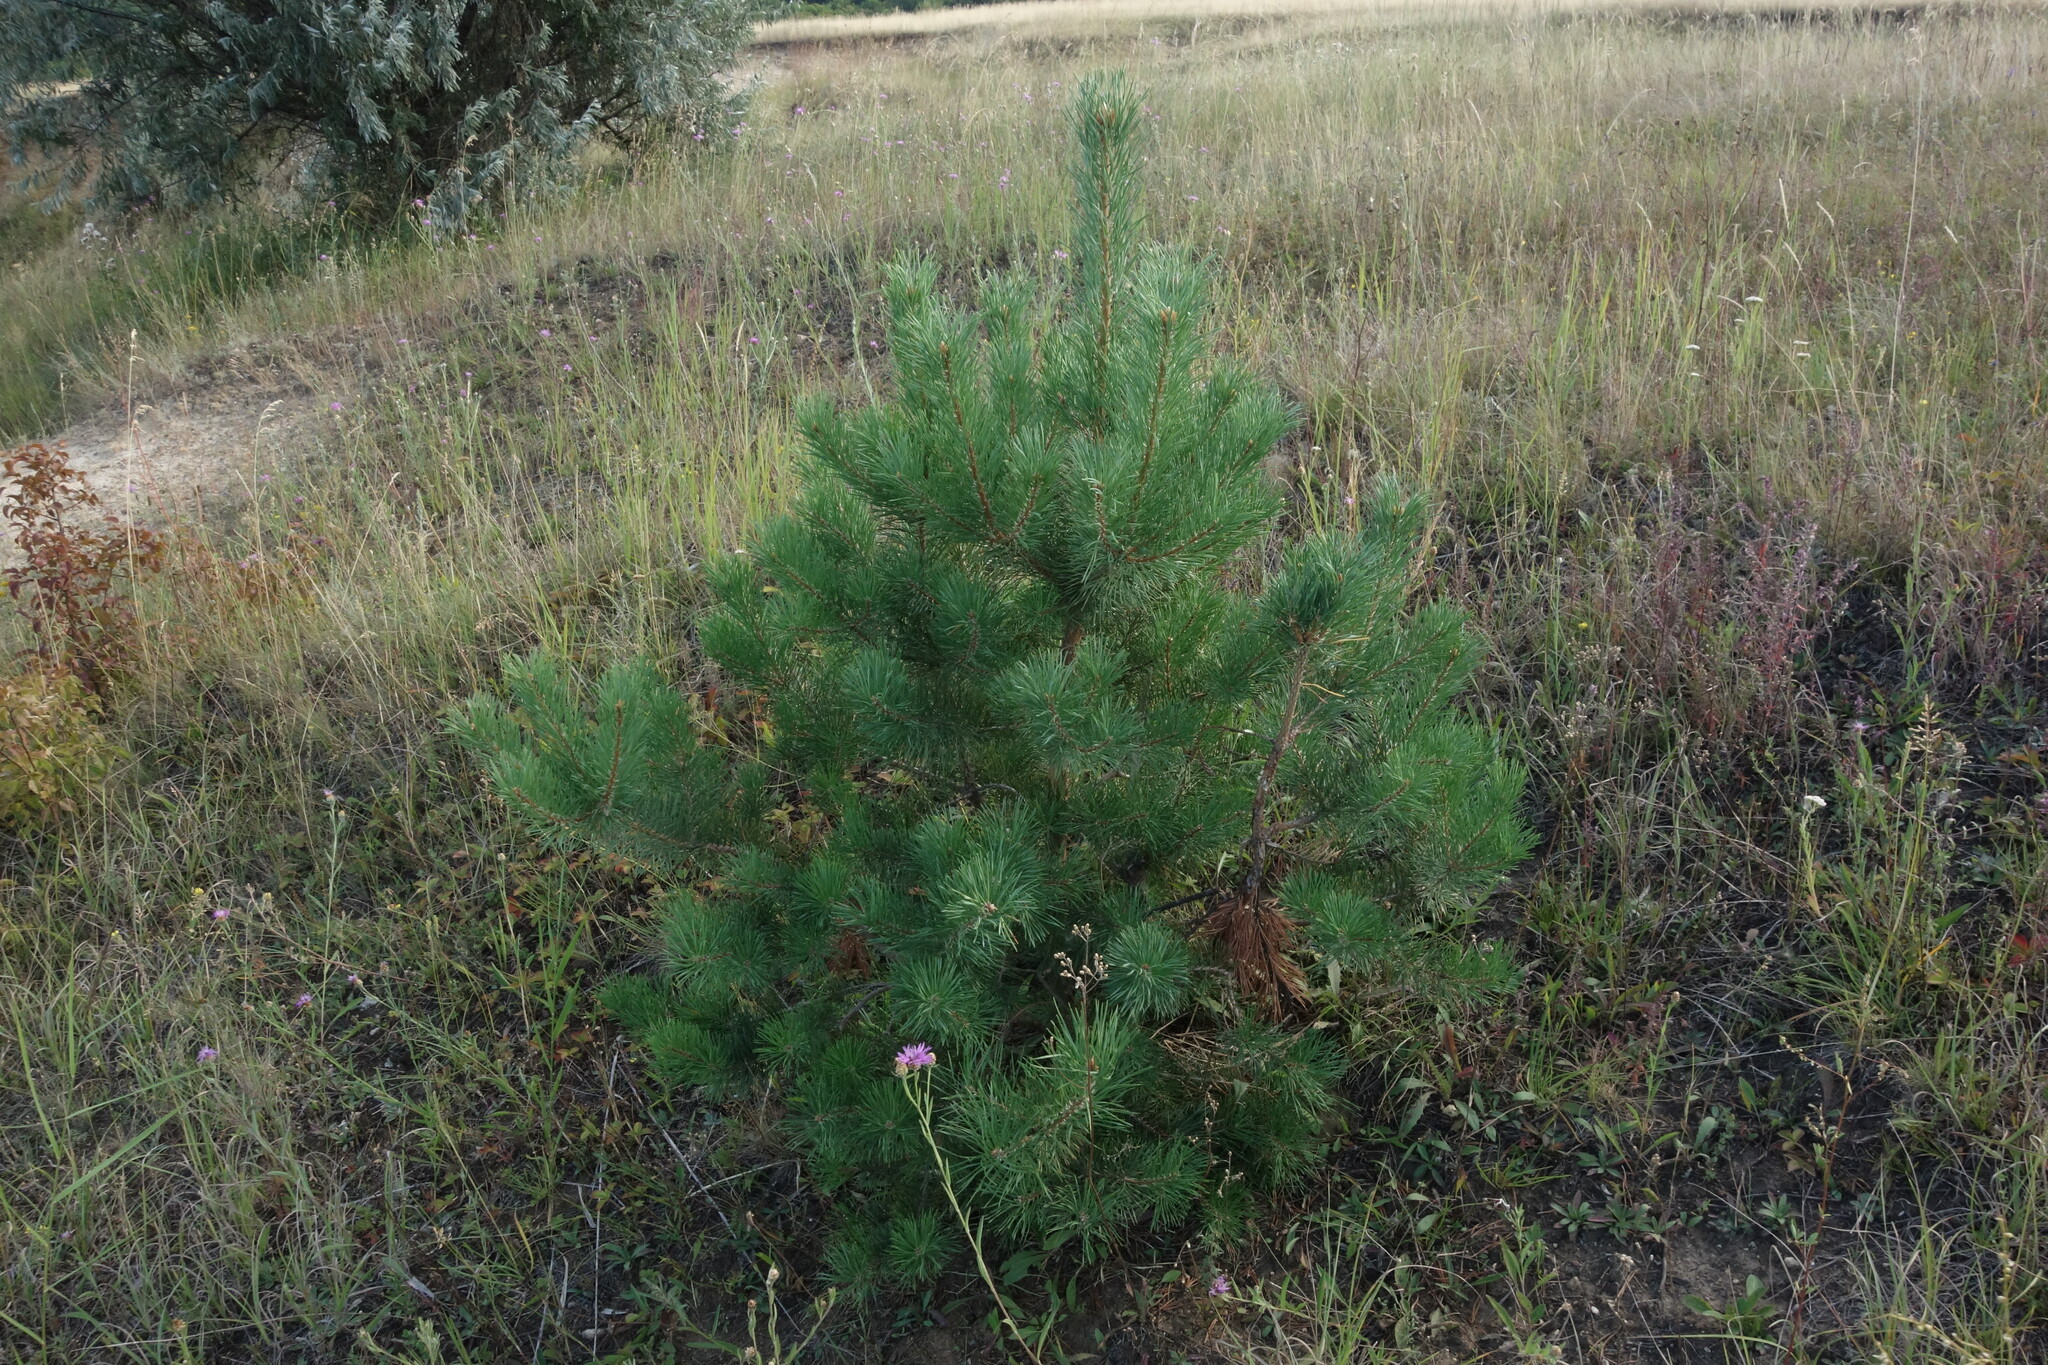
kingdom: Plantae
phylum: Tracheophyta
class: Pinopsida
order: Pinales
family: Pinaceae
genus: Pinus
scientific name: Pinus sylvestris
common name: Scots pine
